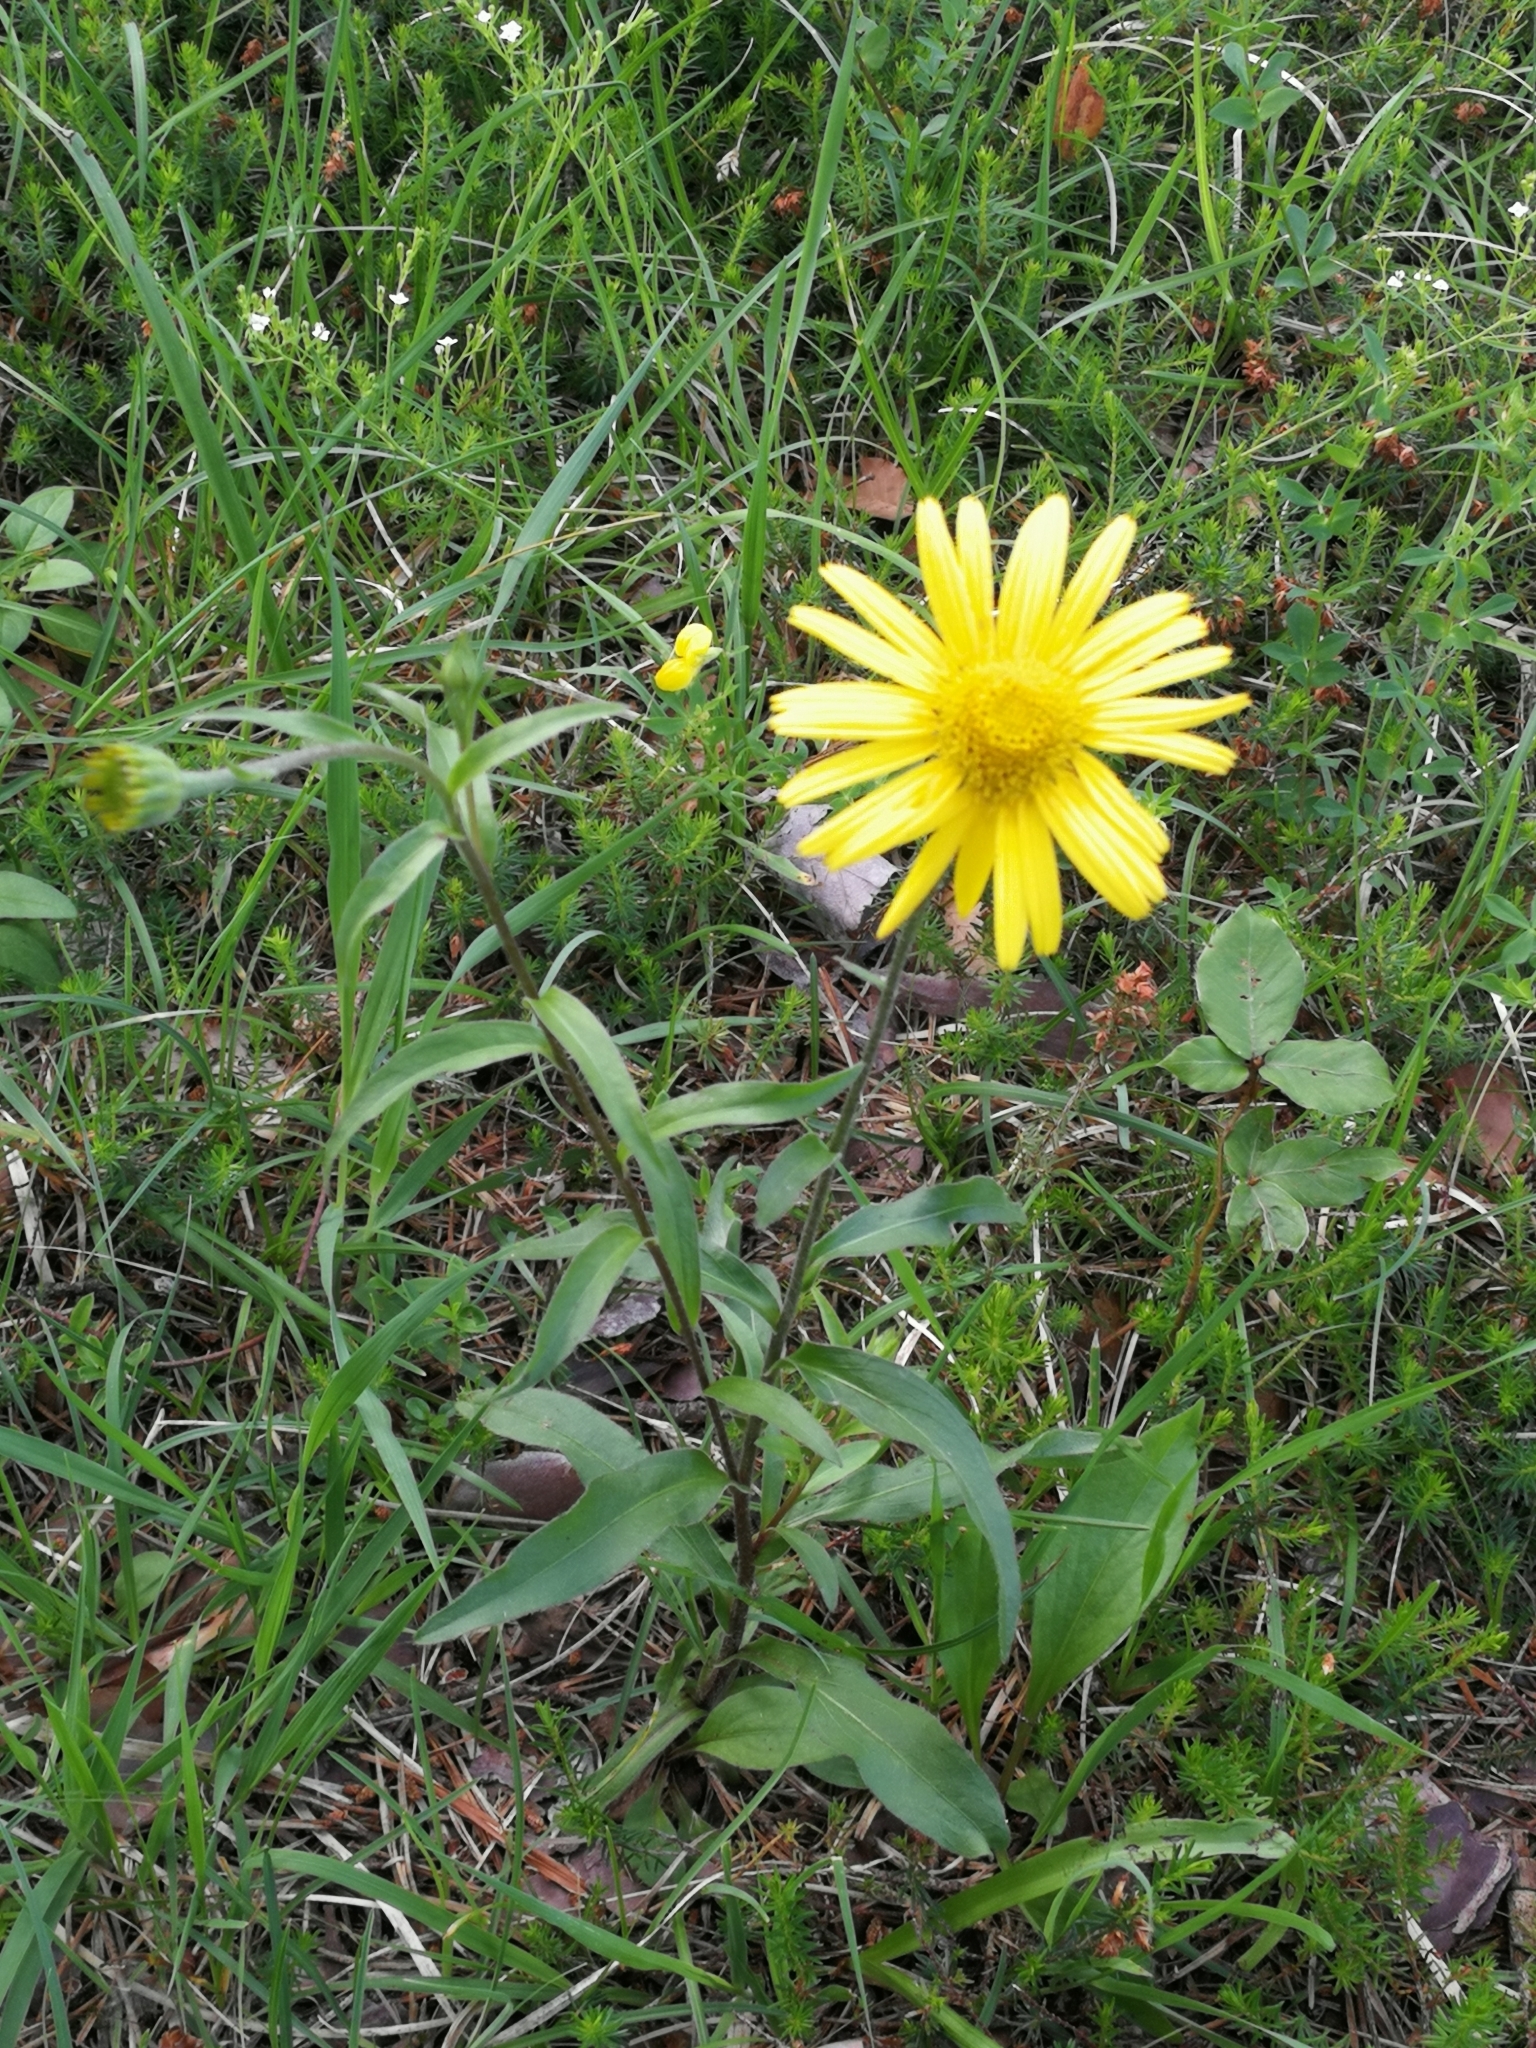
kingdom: Plantae
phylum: Tracheophyta
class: Magnoliopsida
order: Asterales
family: Asteraceae
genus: Buphthalmum
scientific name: Buphthalmum salicifolium
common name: Willow-leaved yellow-oxeye
